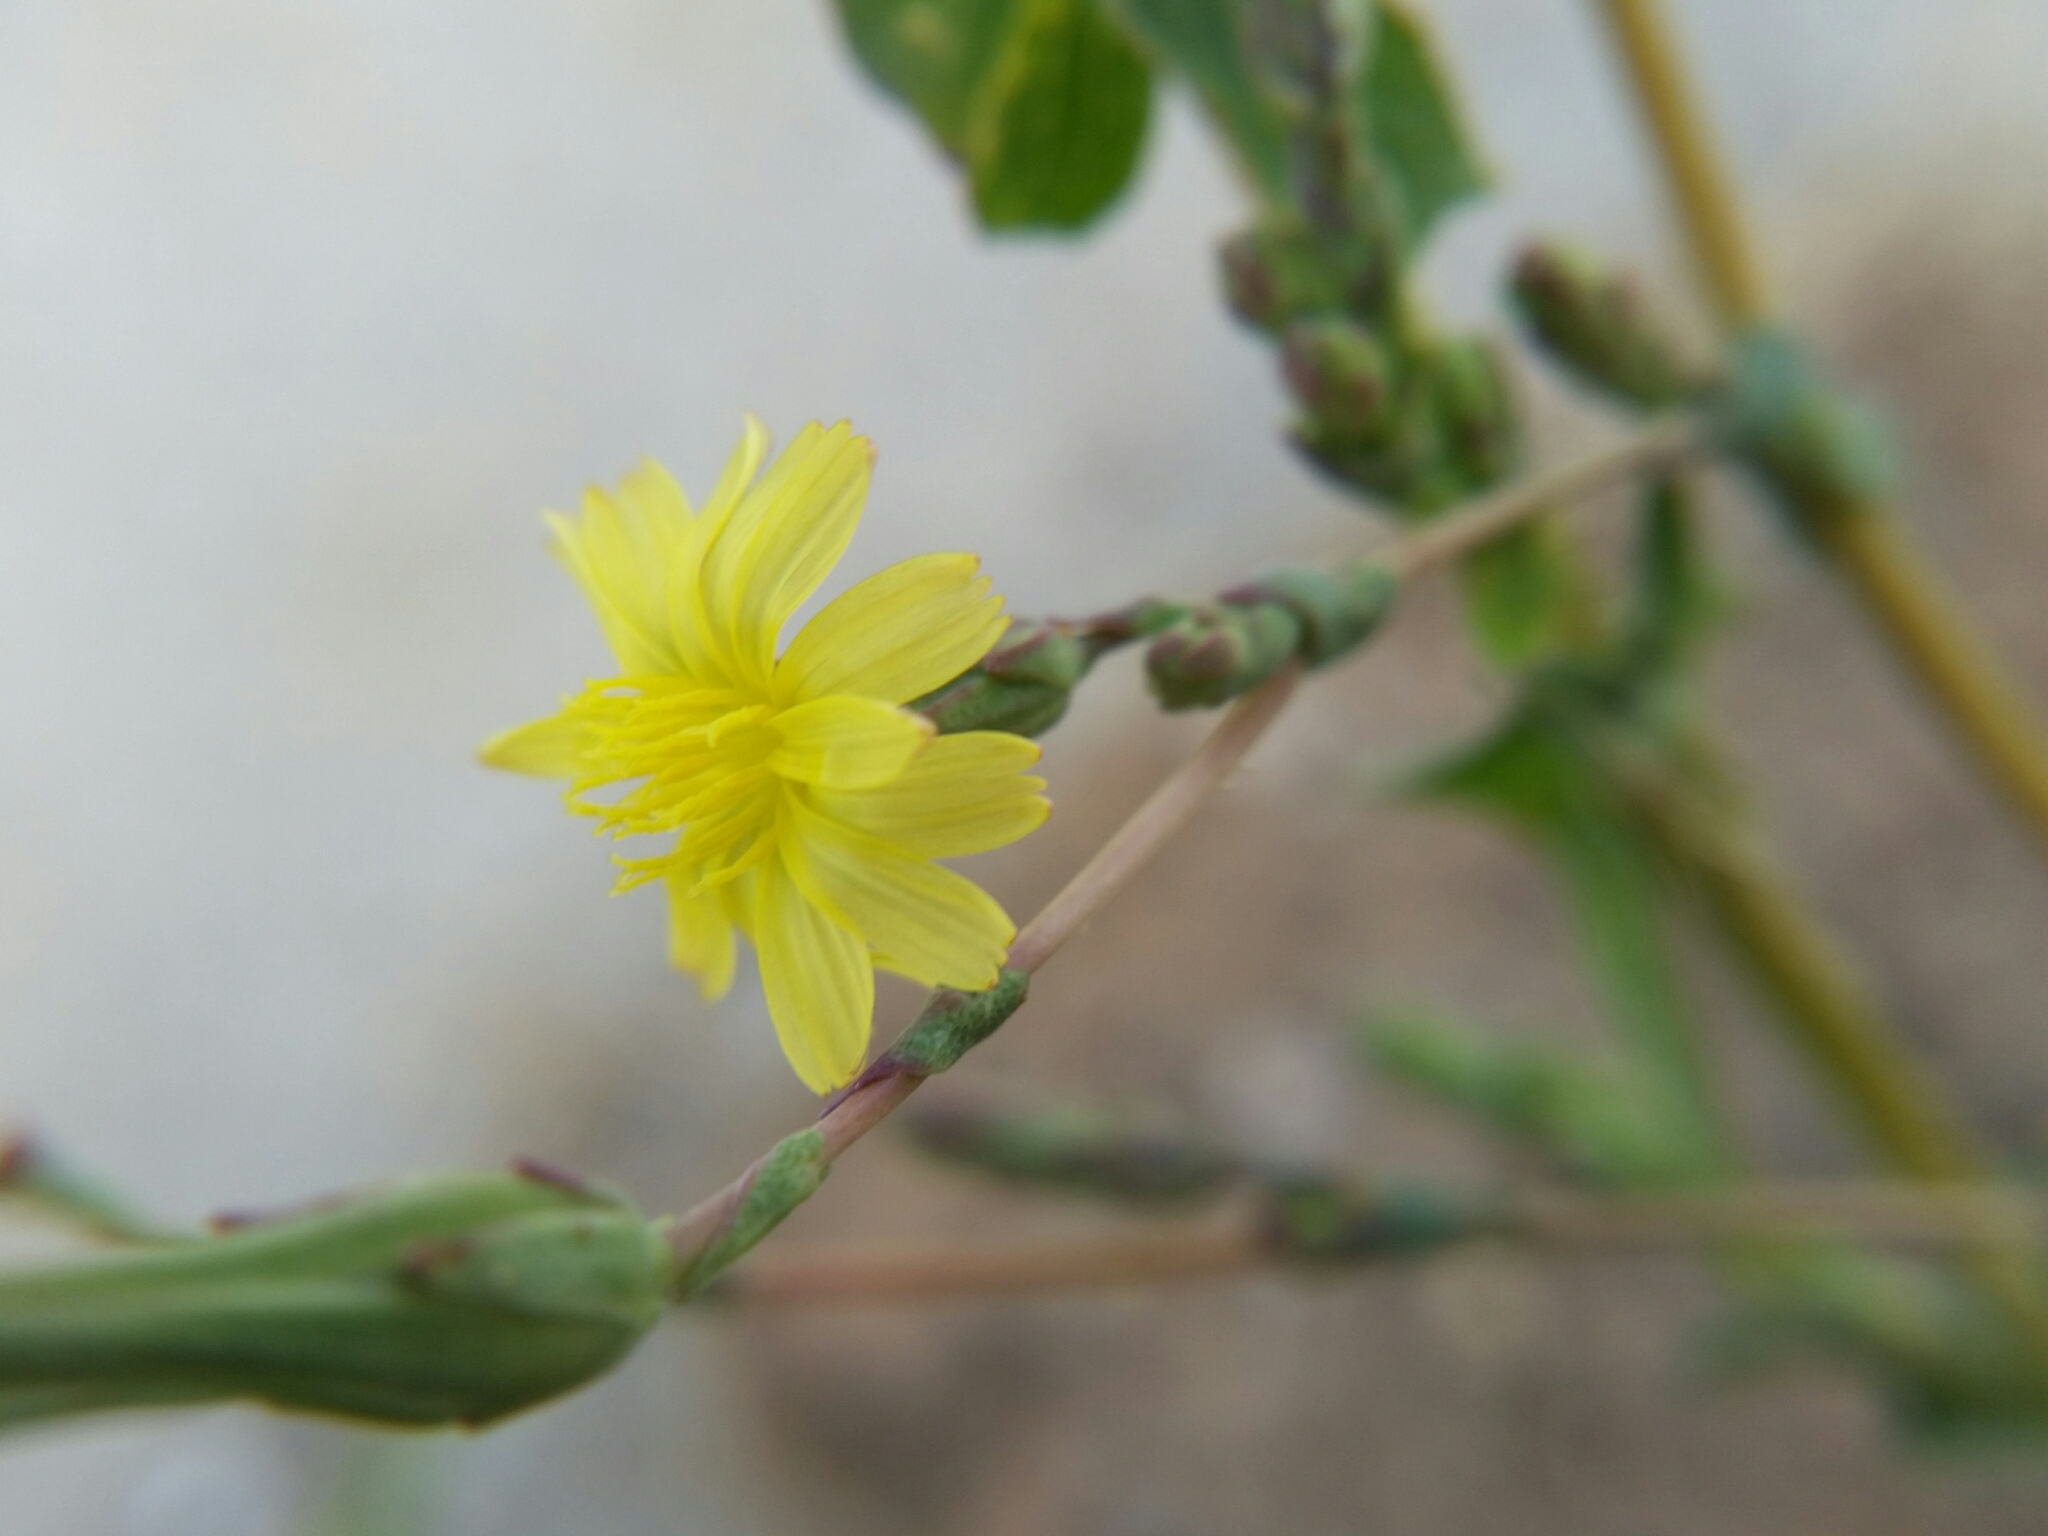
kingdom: Plantae
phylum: Tracheophyta
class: Magnoliopsida
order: Asterales
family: Asteraceae
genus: Lactuca
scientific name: Lactuca serriola
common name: Prickly lettuce
